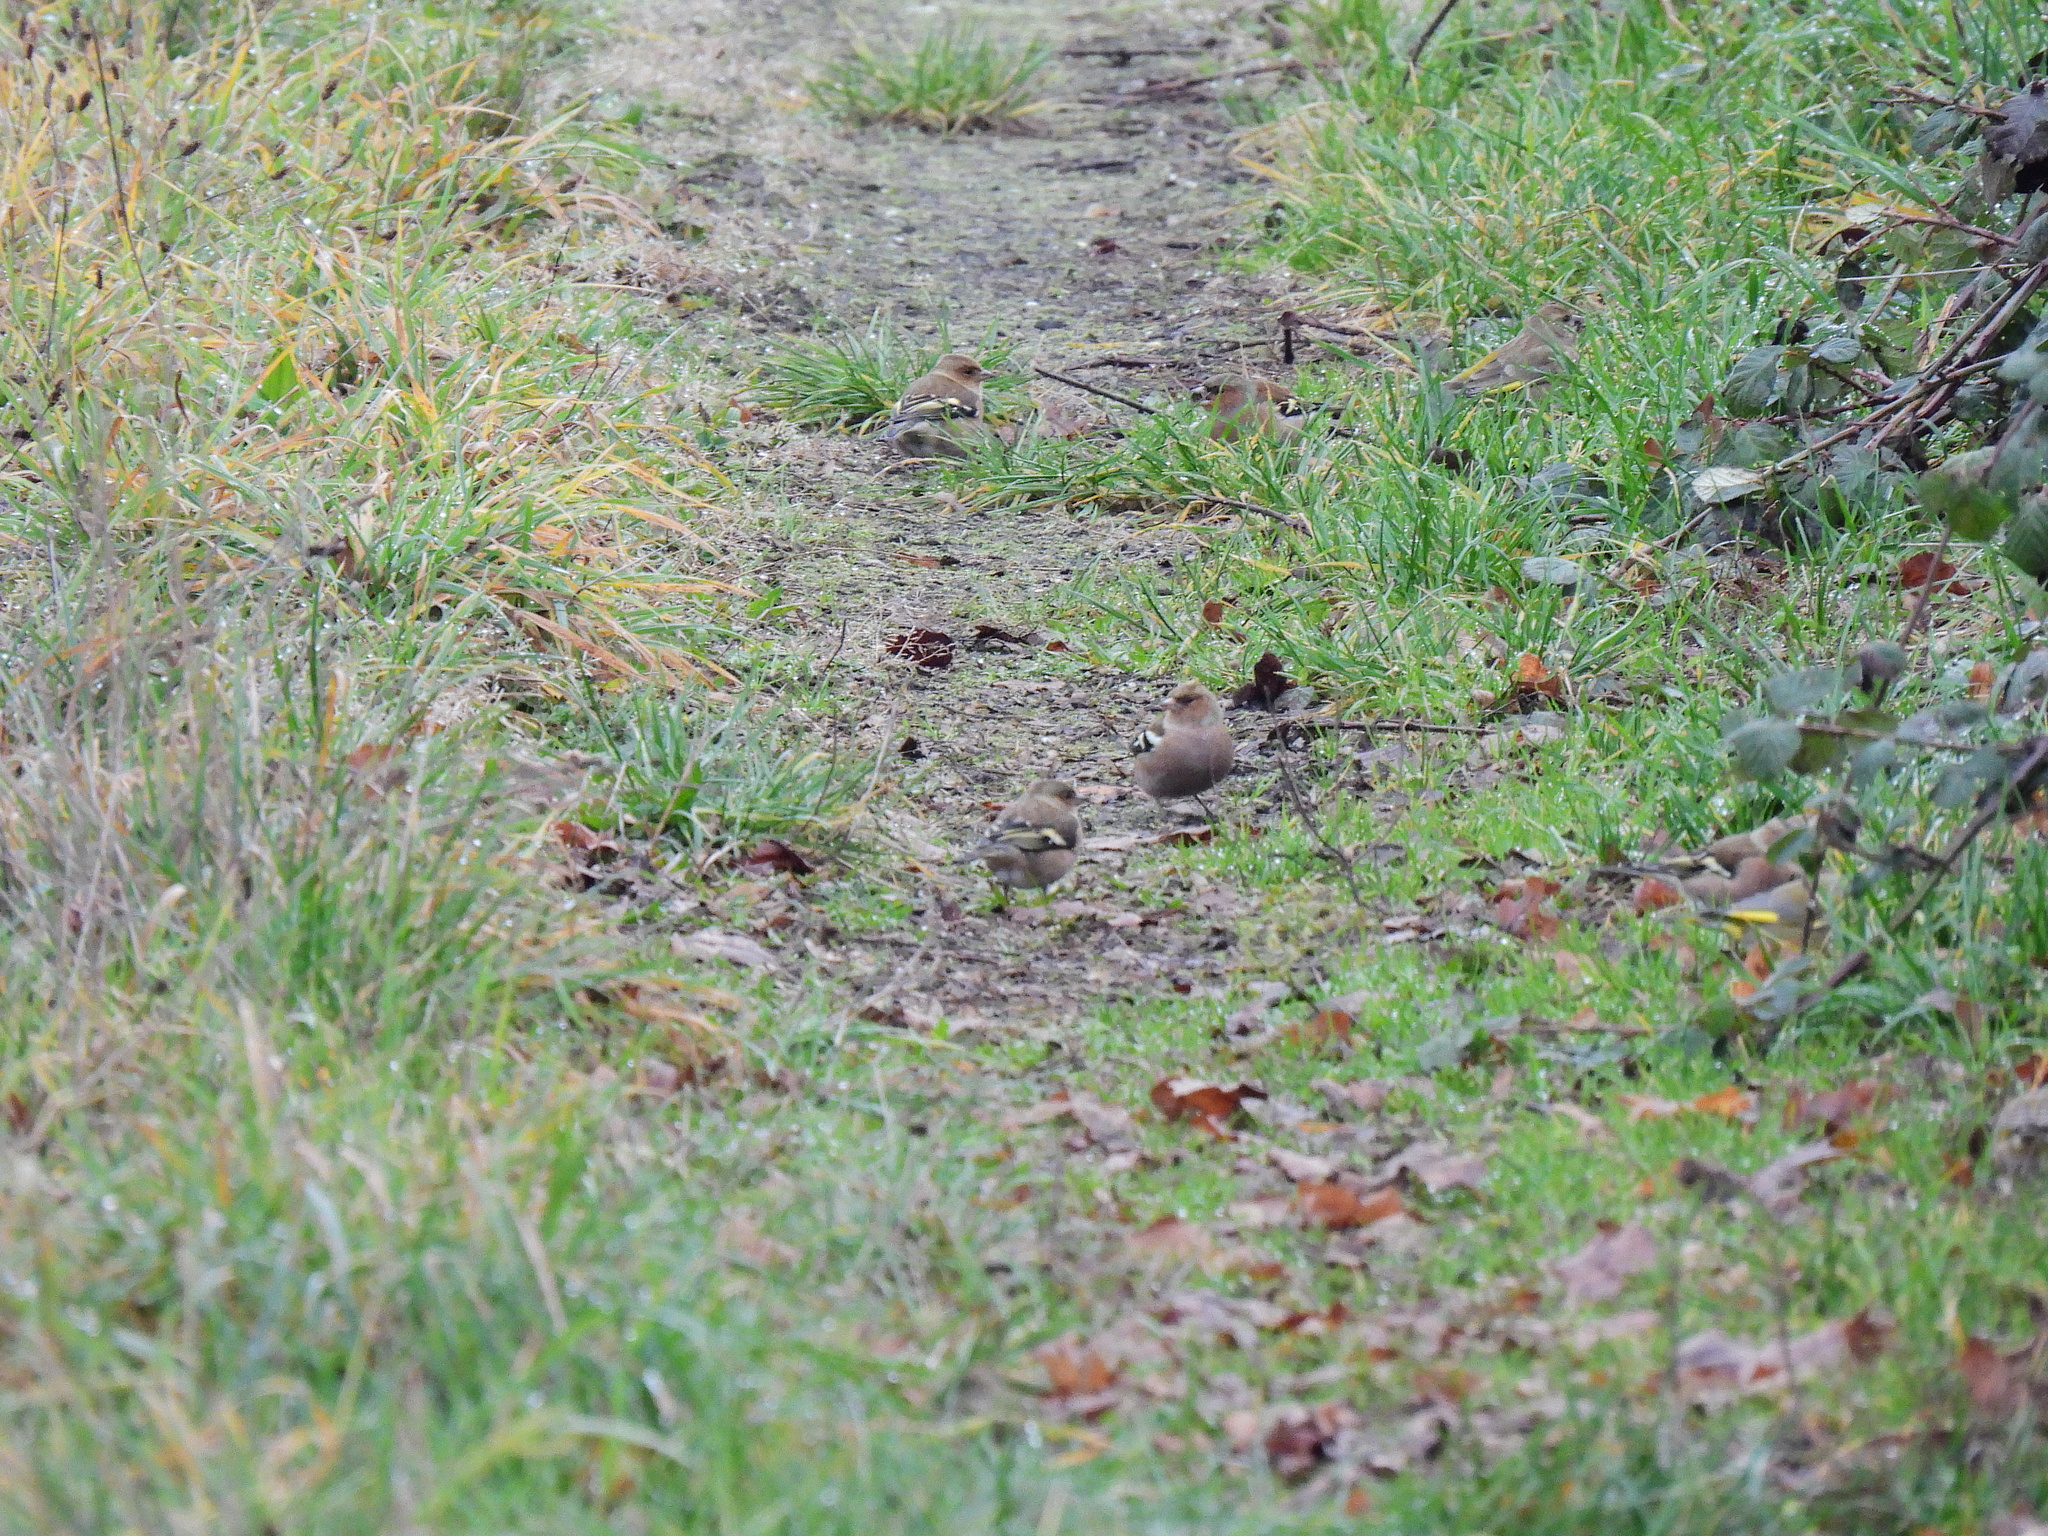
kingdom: Animalia
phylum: Chordata
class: Aves
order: Passeriformes
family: Fringillidae
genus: Fringilla
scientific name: Fringilla coelebs
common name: Common chaffinch
